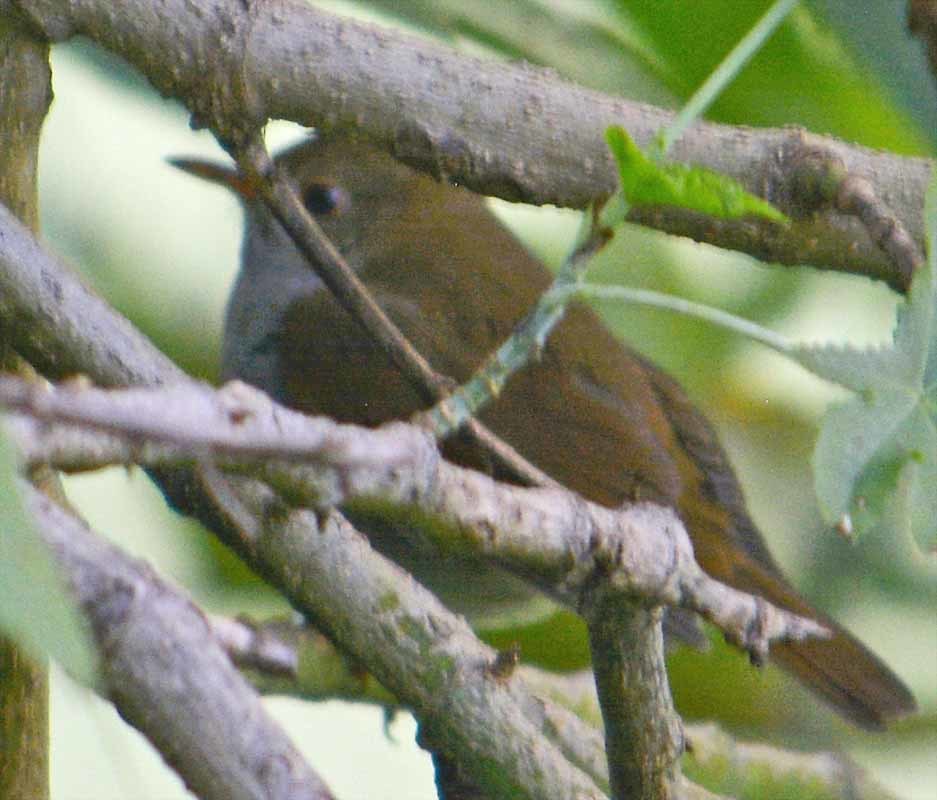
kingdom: Animalia
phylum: Chordata
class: Aves
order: Passeriformes
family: Turdidae
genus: Catharus
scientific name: Catharus aurantiirostris
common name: Orange-billed nightingale-thrush
